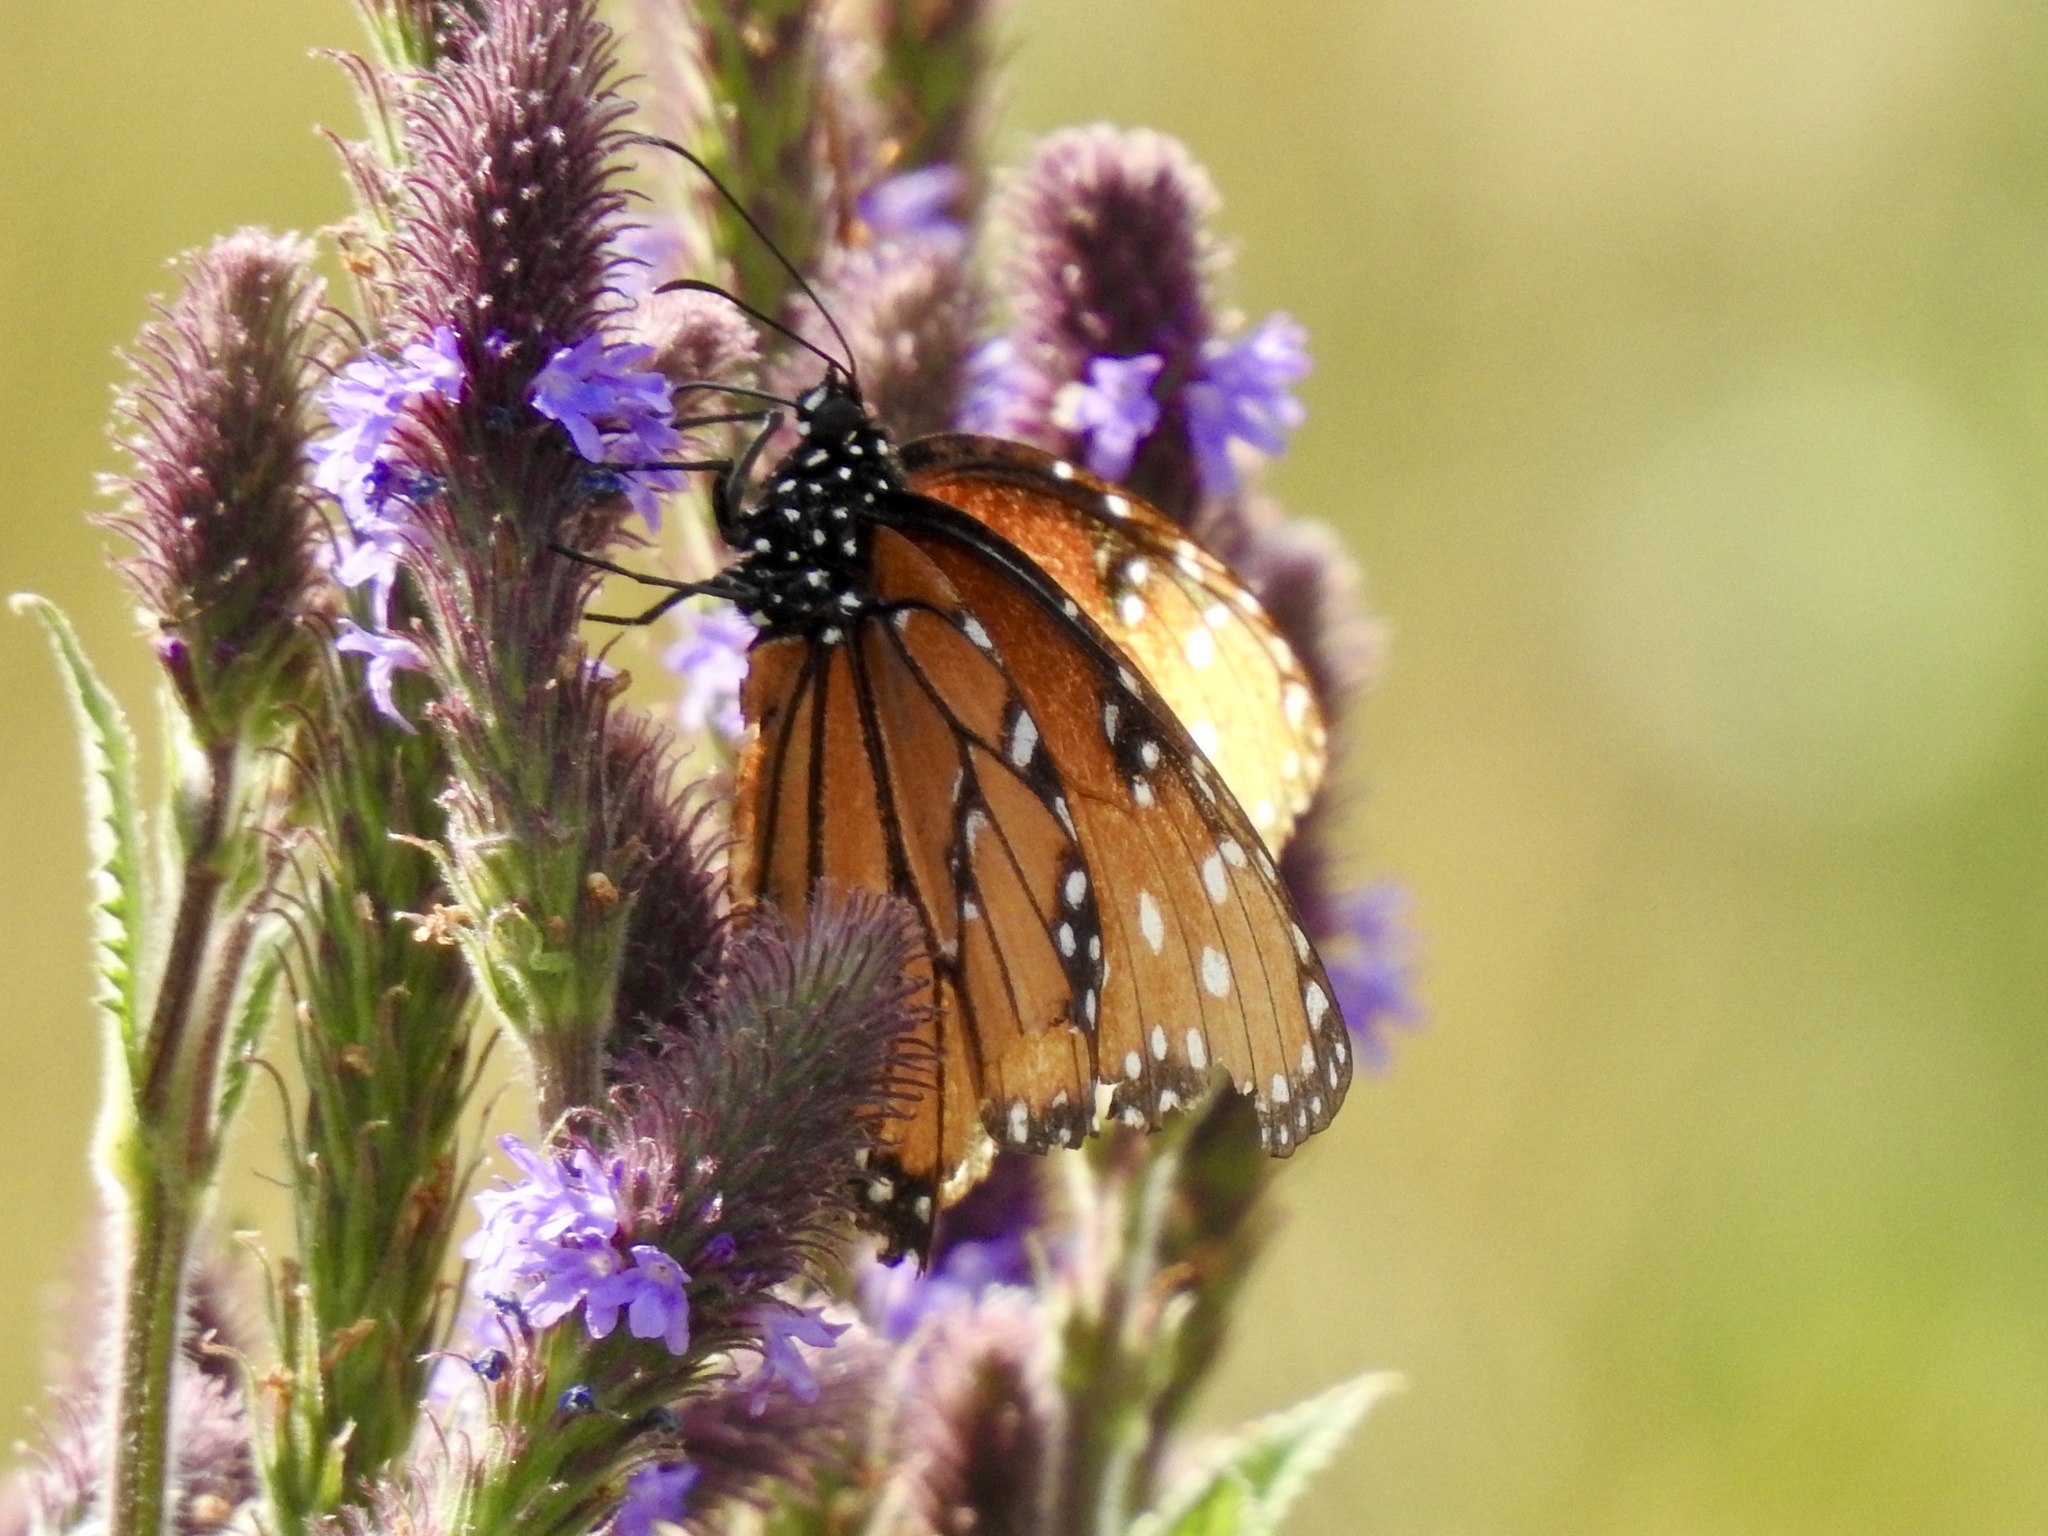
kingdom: Animalia
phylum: Arthropoda
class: Insecta
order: Lepidoptera
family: Nymphalidae
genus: Danaus
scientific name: Danaus gilippus
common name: Queen
